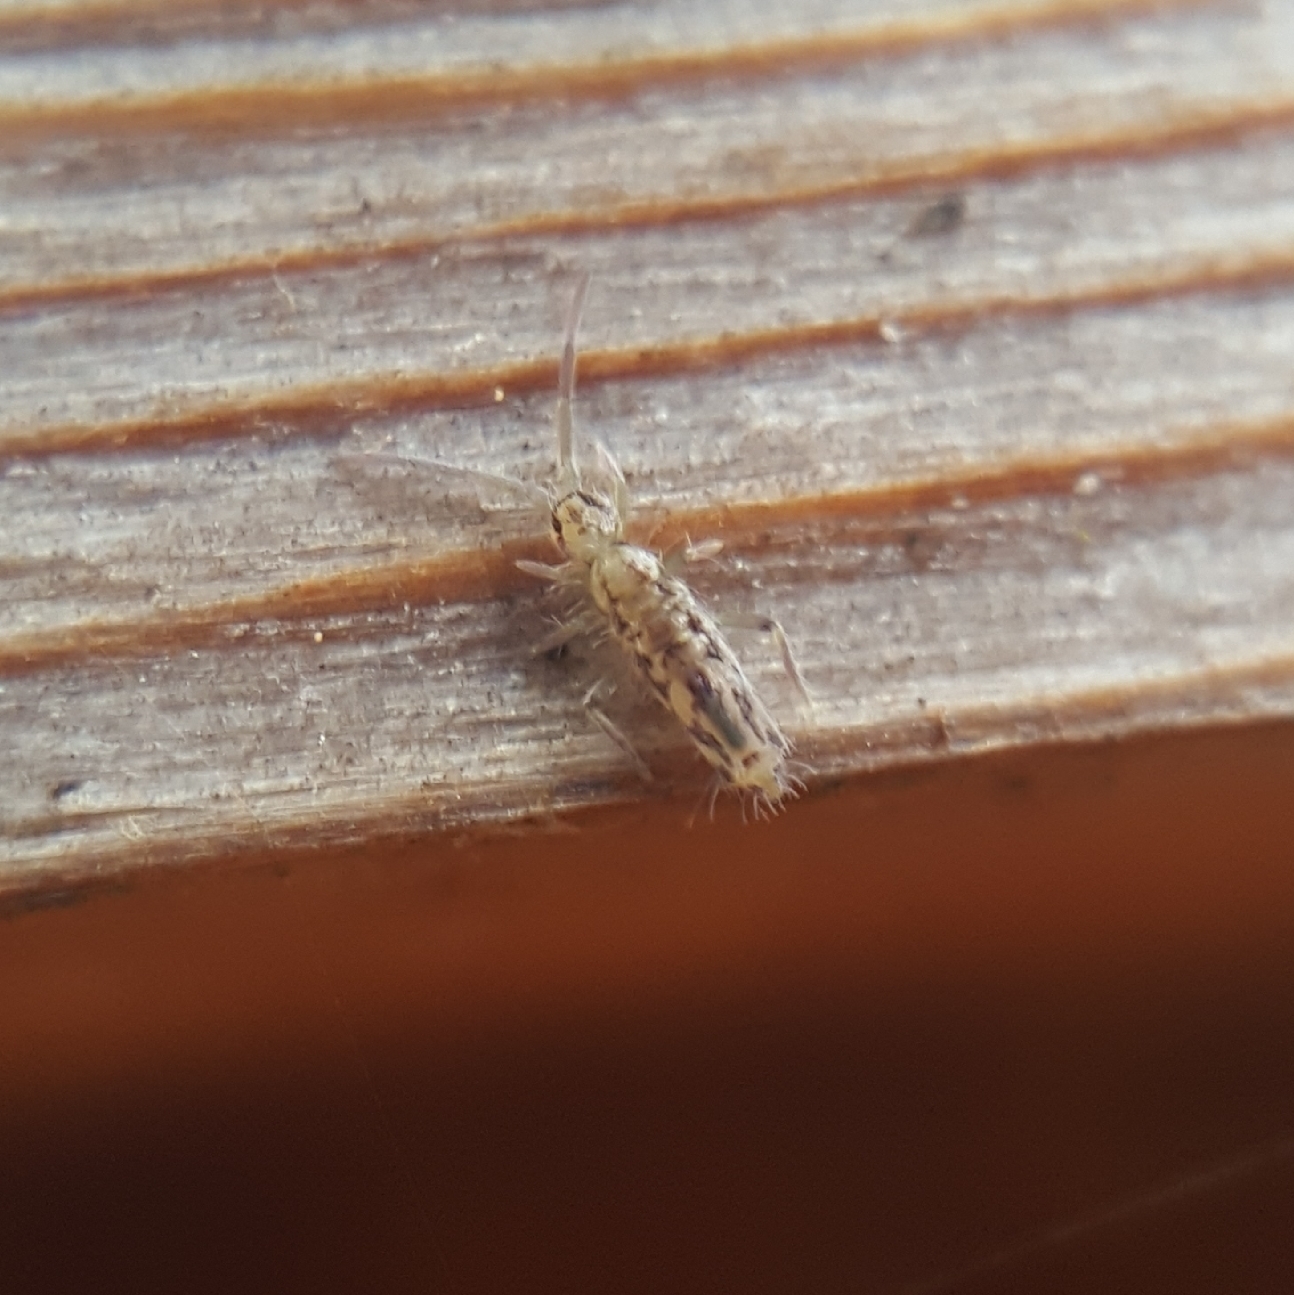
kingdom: Animalia
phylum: Arthropoda
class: Collembola
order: Entomobryomorpha
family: Entomobryidae
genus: Entomobrya
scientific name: Entomobrya katzi
